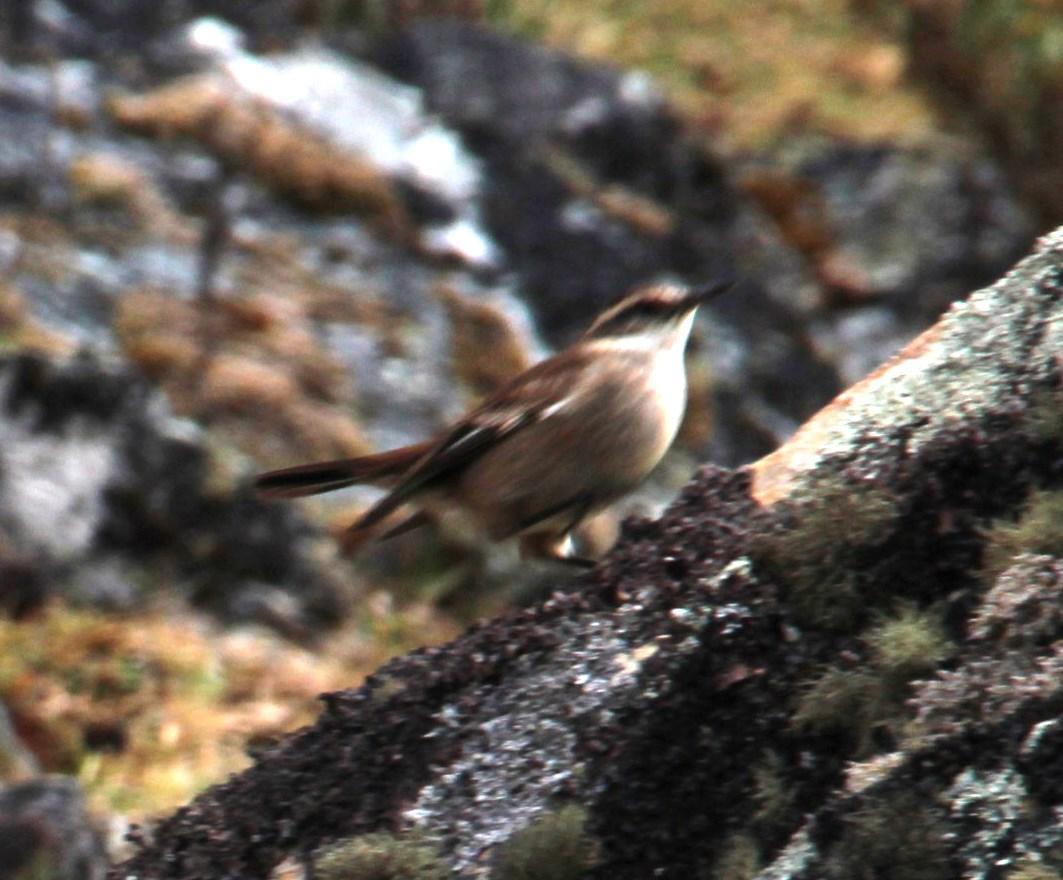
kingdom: Animalia
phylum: Chordata
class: Aves
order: Passeriformes
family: Furnariidae
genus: Cinclodes
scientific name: Cinclodes fuscus
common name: Buff-winged cinclodes
